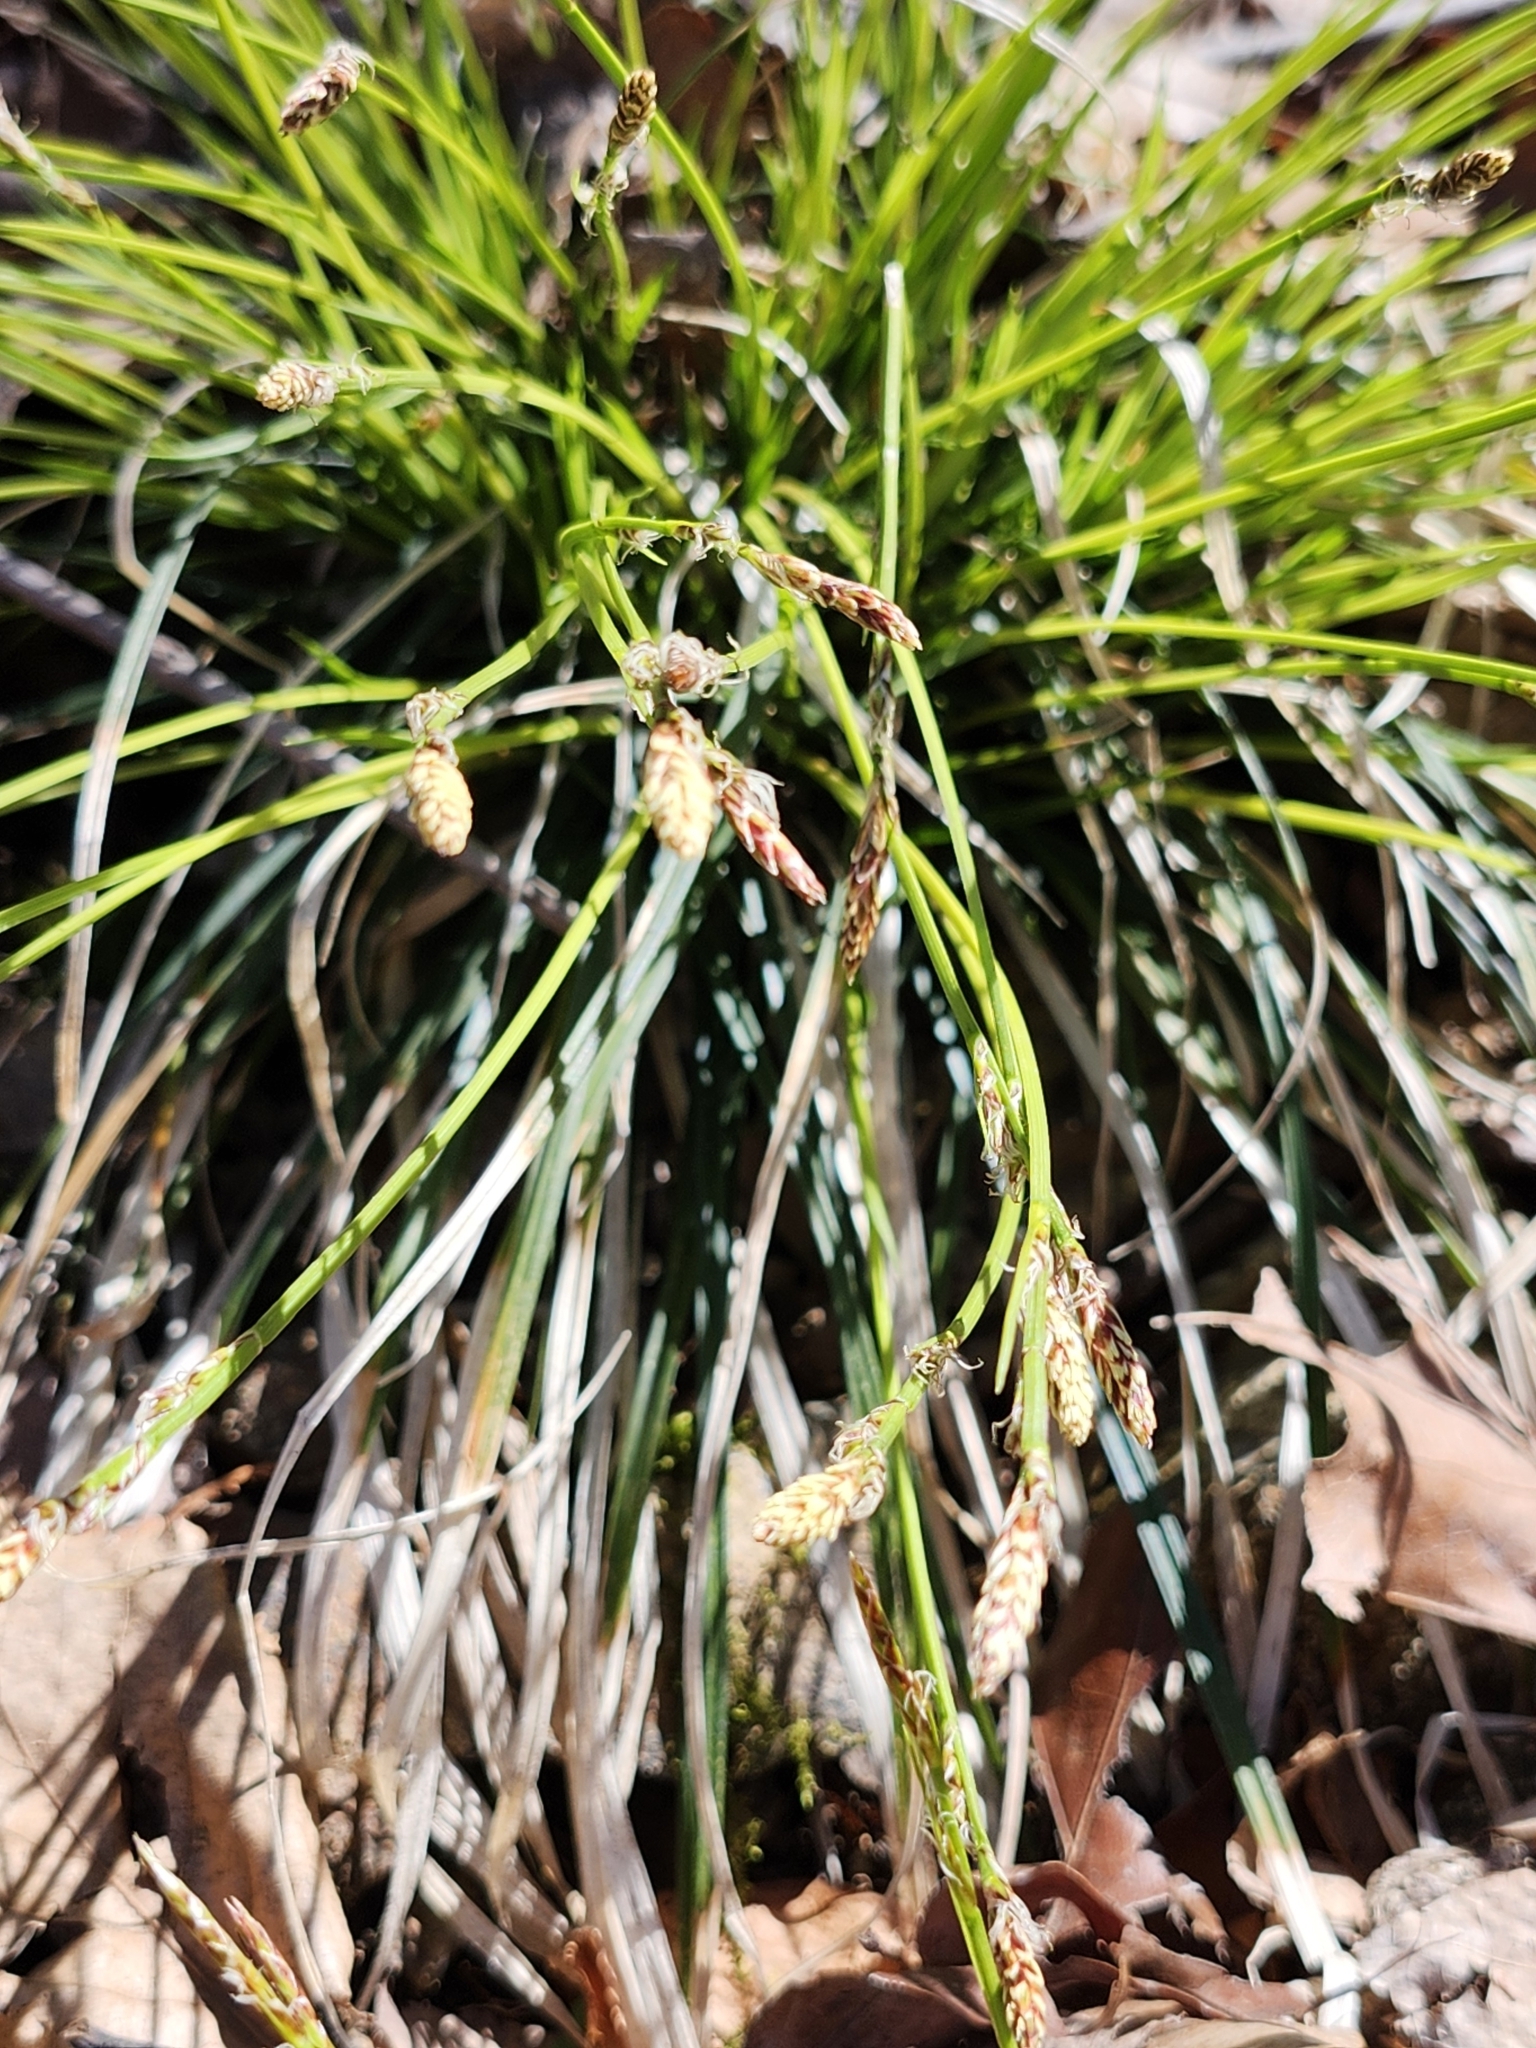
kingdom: Plantae
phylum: Tracheophyta
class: Liliopsida
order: Poales
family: Cyperaceae
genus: Carex
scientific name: Carex pensylvanica
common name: Common oak sedge
